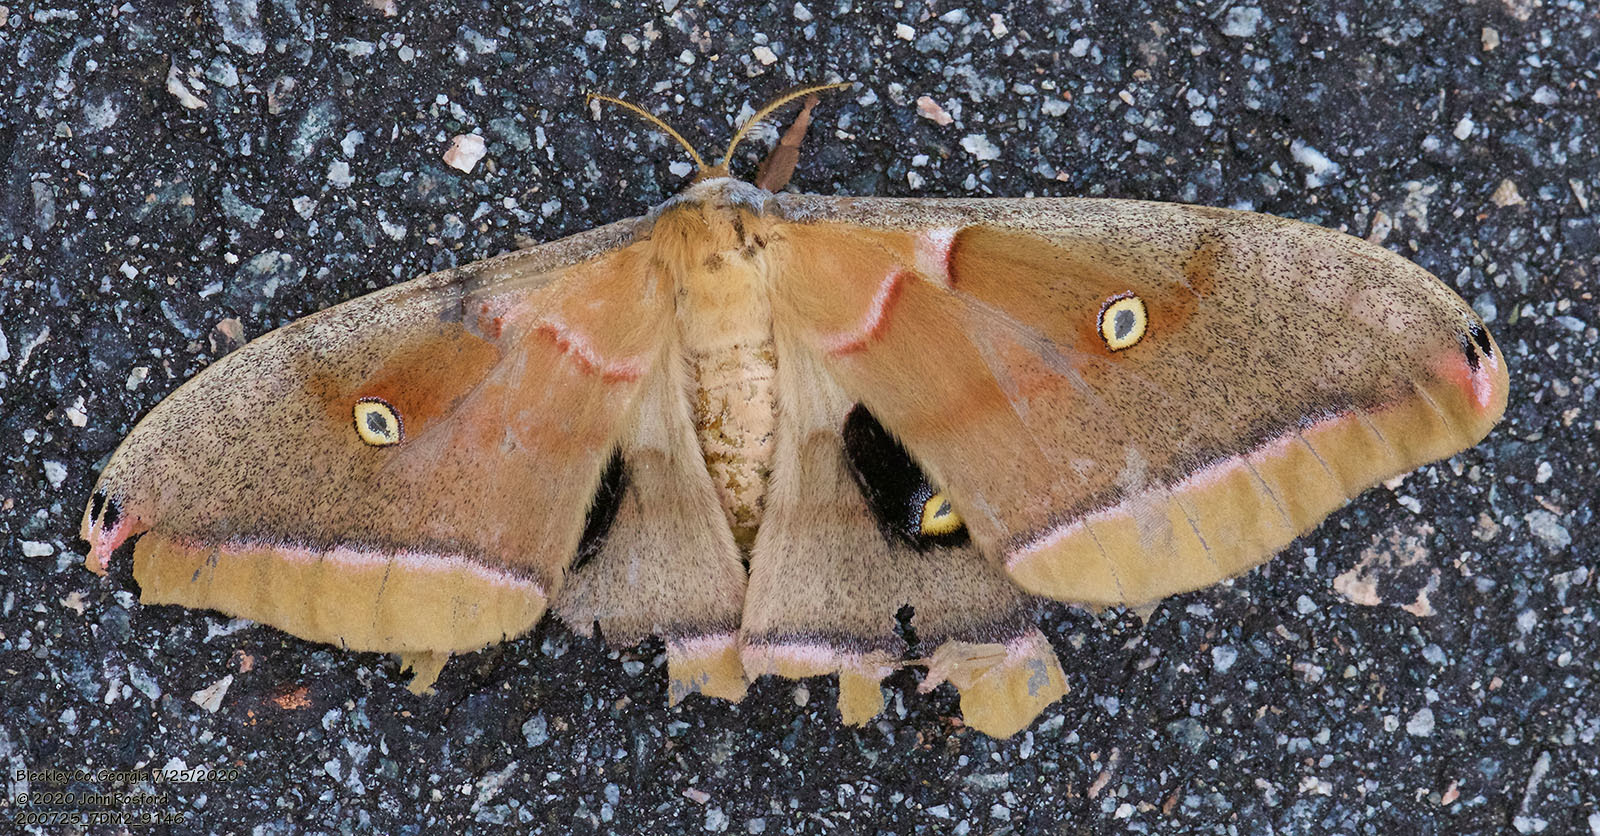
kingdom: Animalia
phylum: Arthropoda
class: Insecta
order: Lepidoptera
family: Saturniidae
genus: Antheraea
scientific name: Antheraea polyphemus
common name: Polyphemus moth
